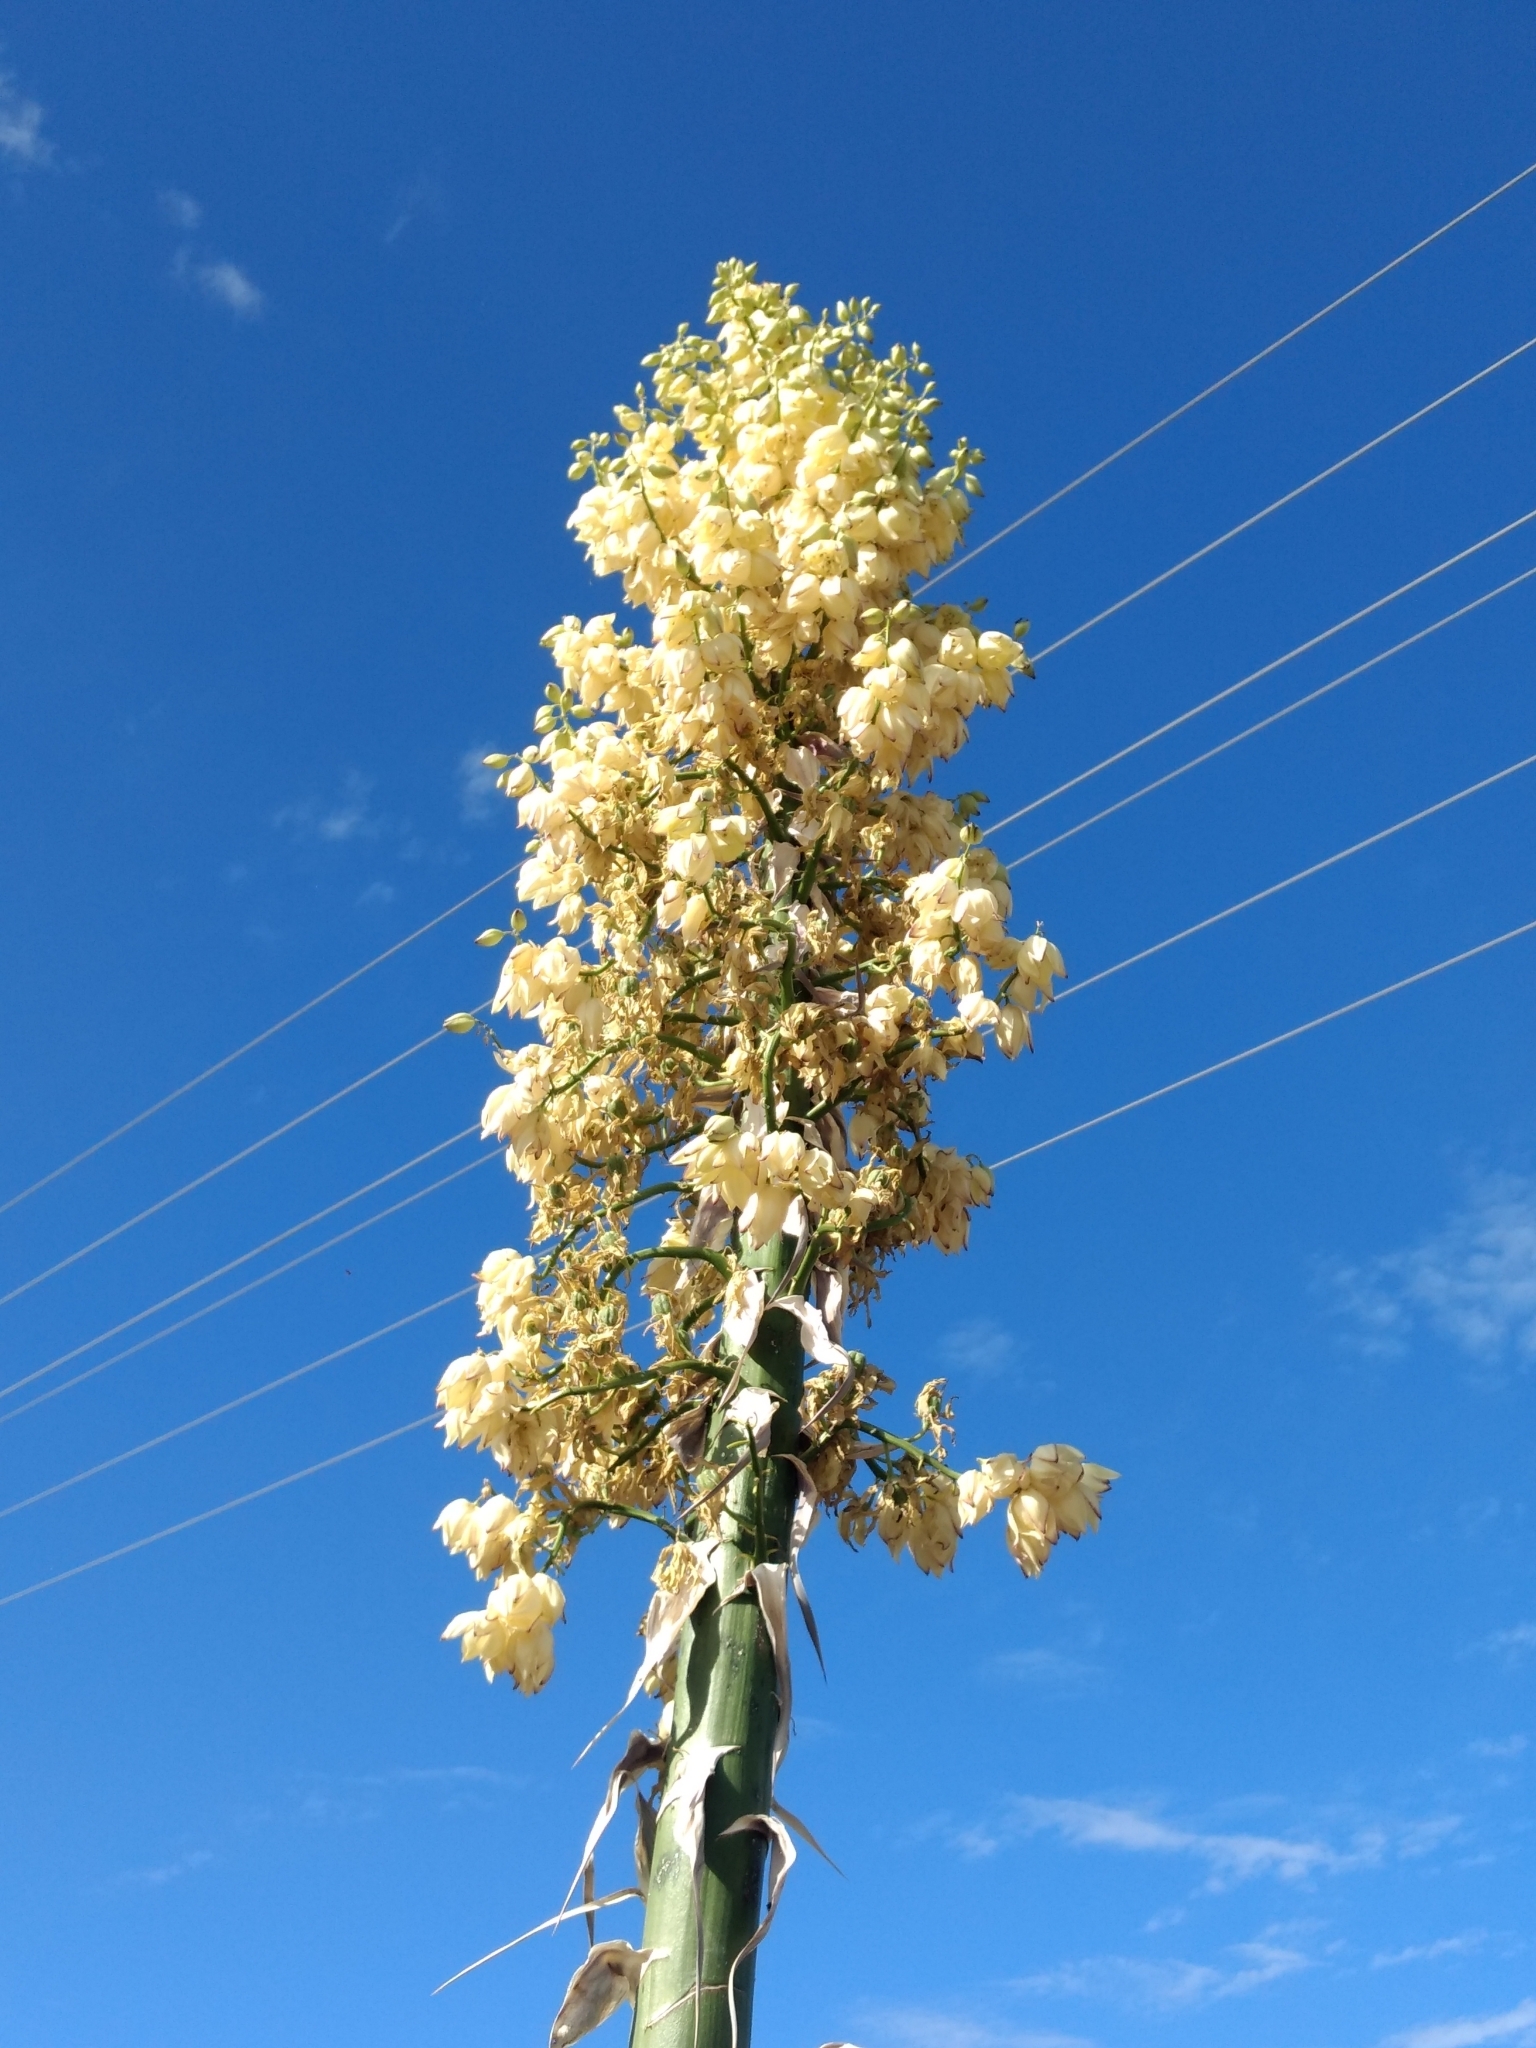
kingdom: Plantae
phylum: Tracheophyta
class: Liliopsida
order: Asparagales
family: Asparagaceae
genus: Hesperoyucca
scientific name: Hesperoyucca whipplei
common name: Our lord's-candle
